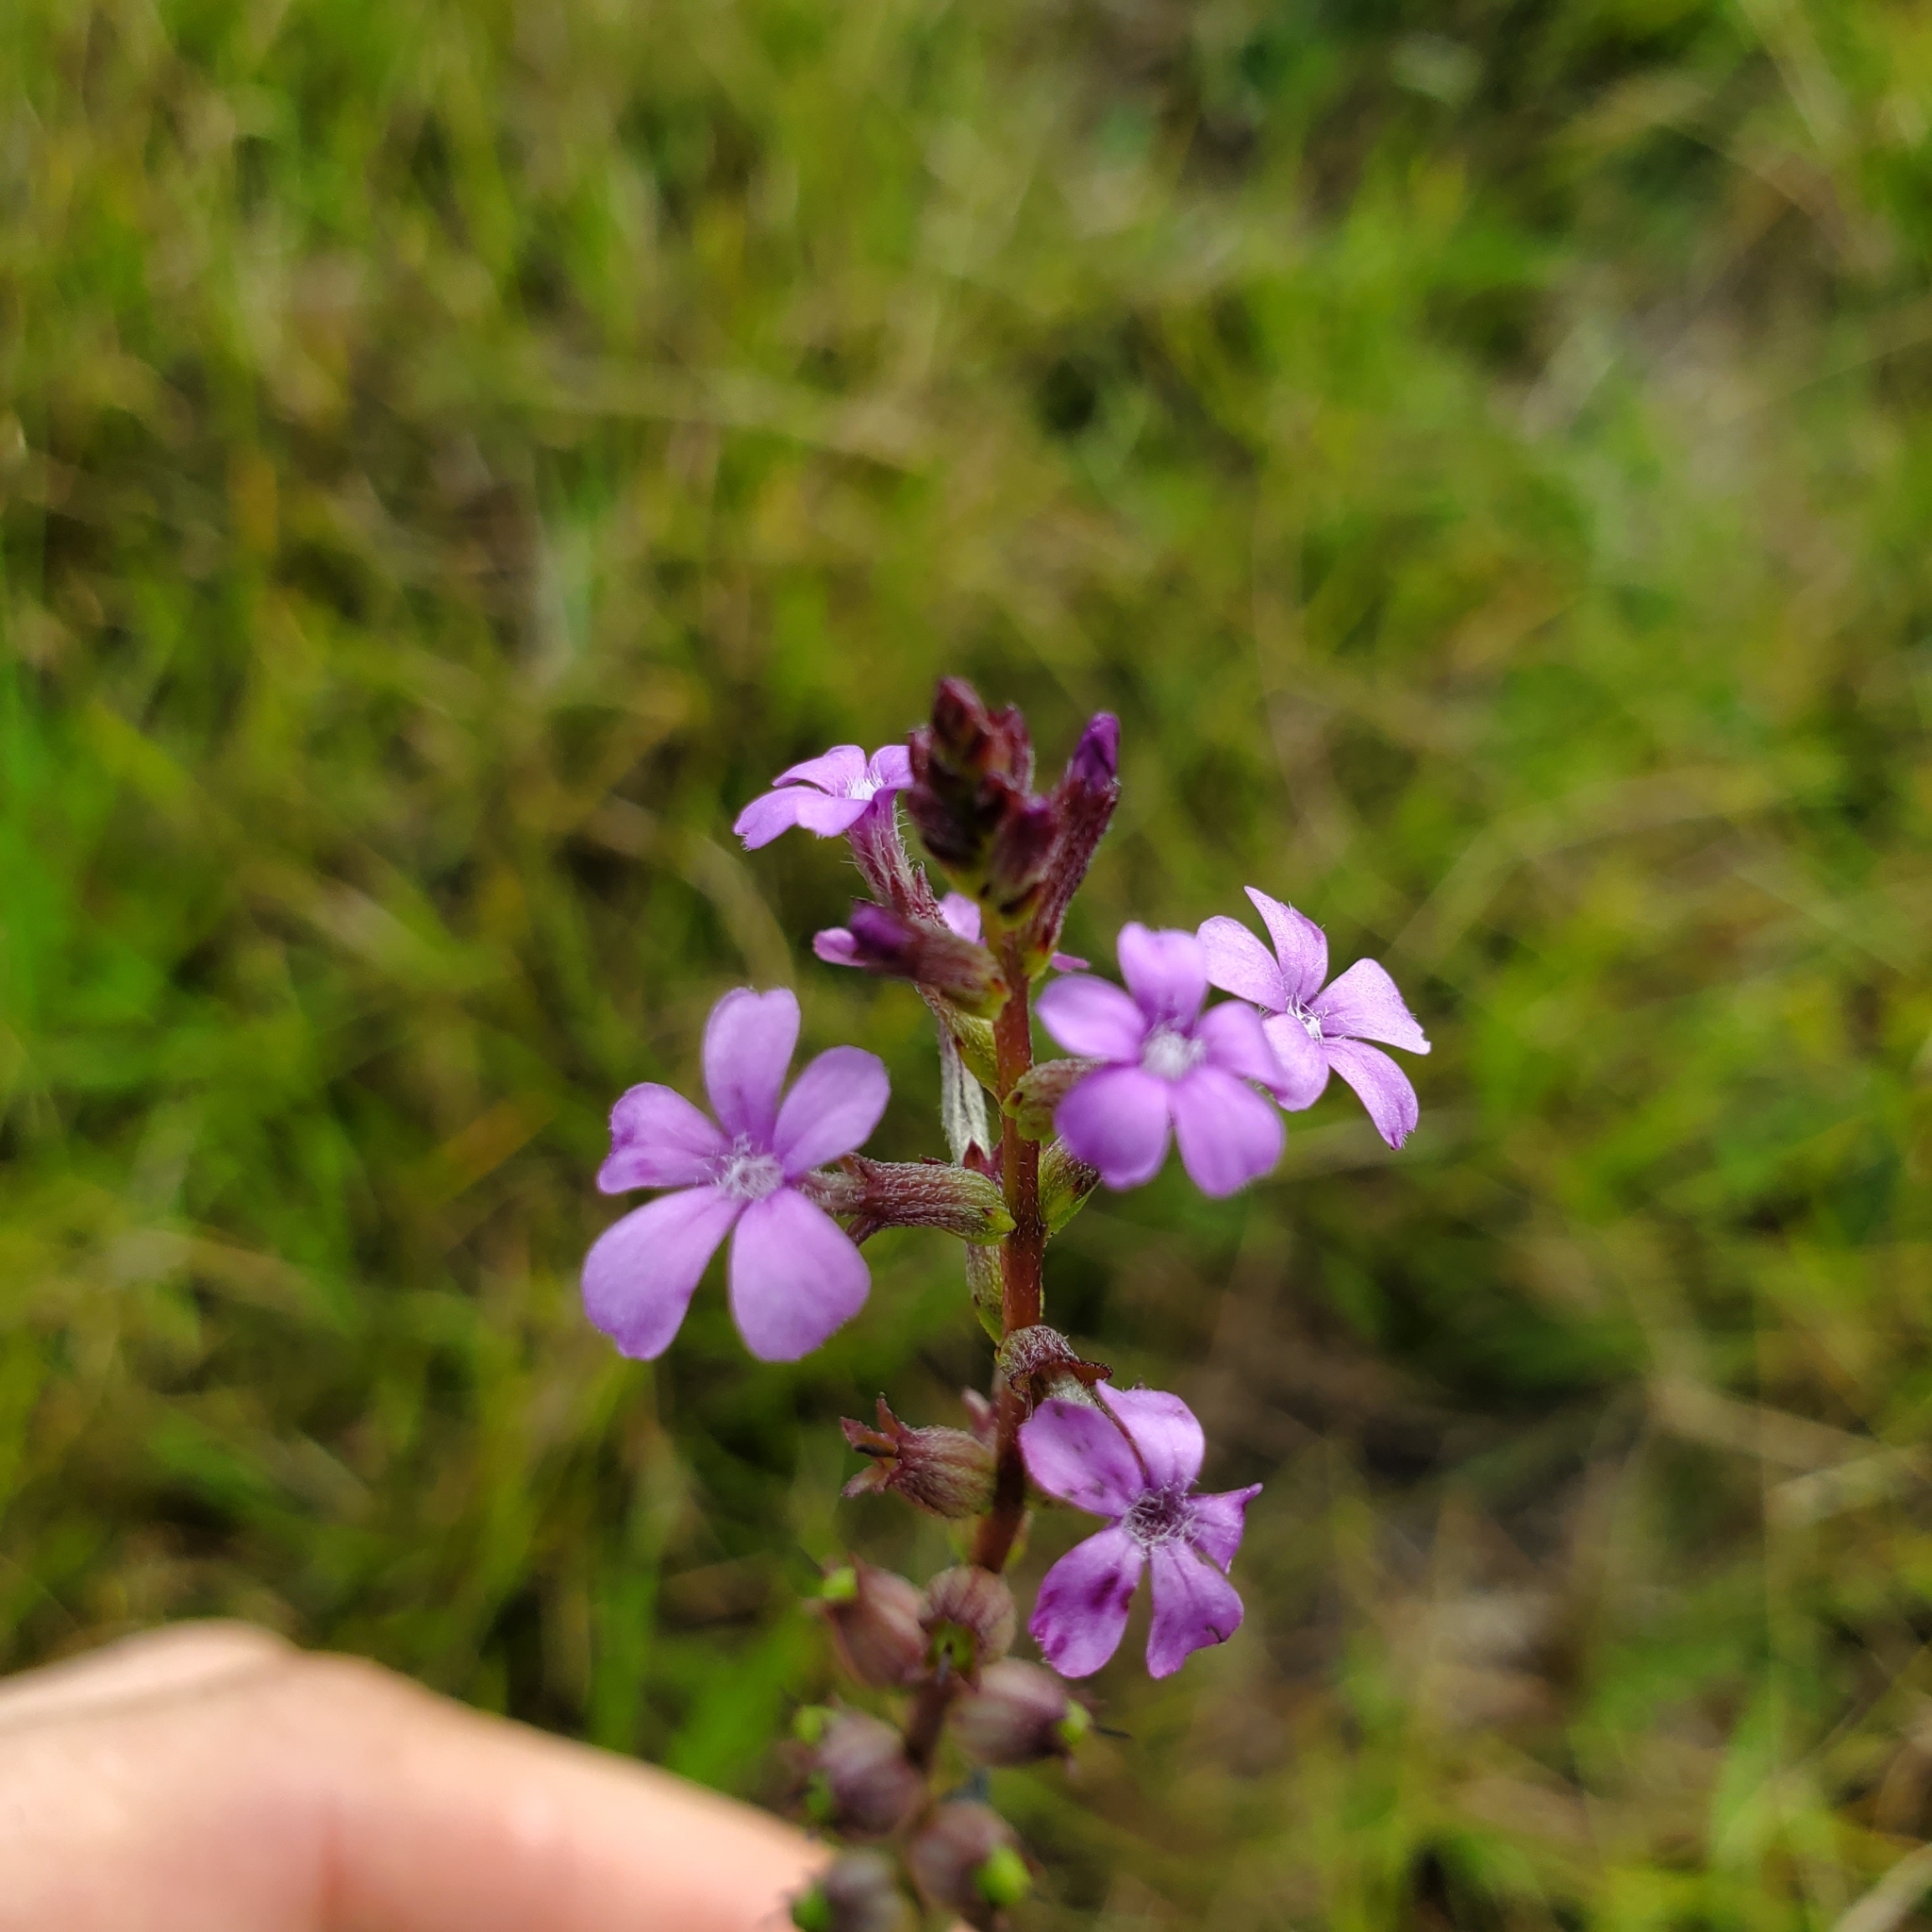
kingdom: Plantae
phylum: Tracheophyta
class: Magnoliopsida
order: Lamiales
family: Orobanchaceae
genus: Buchnera
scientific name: Buchnera floridana
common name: Florida bluehearts
